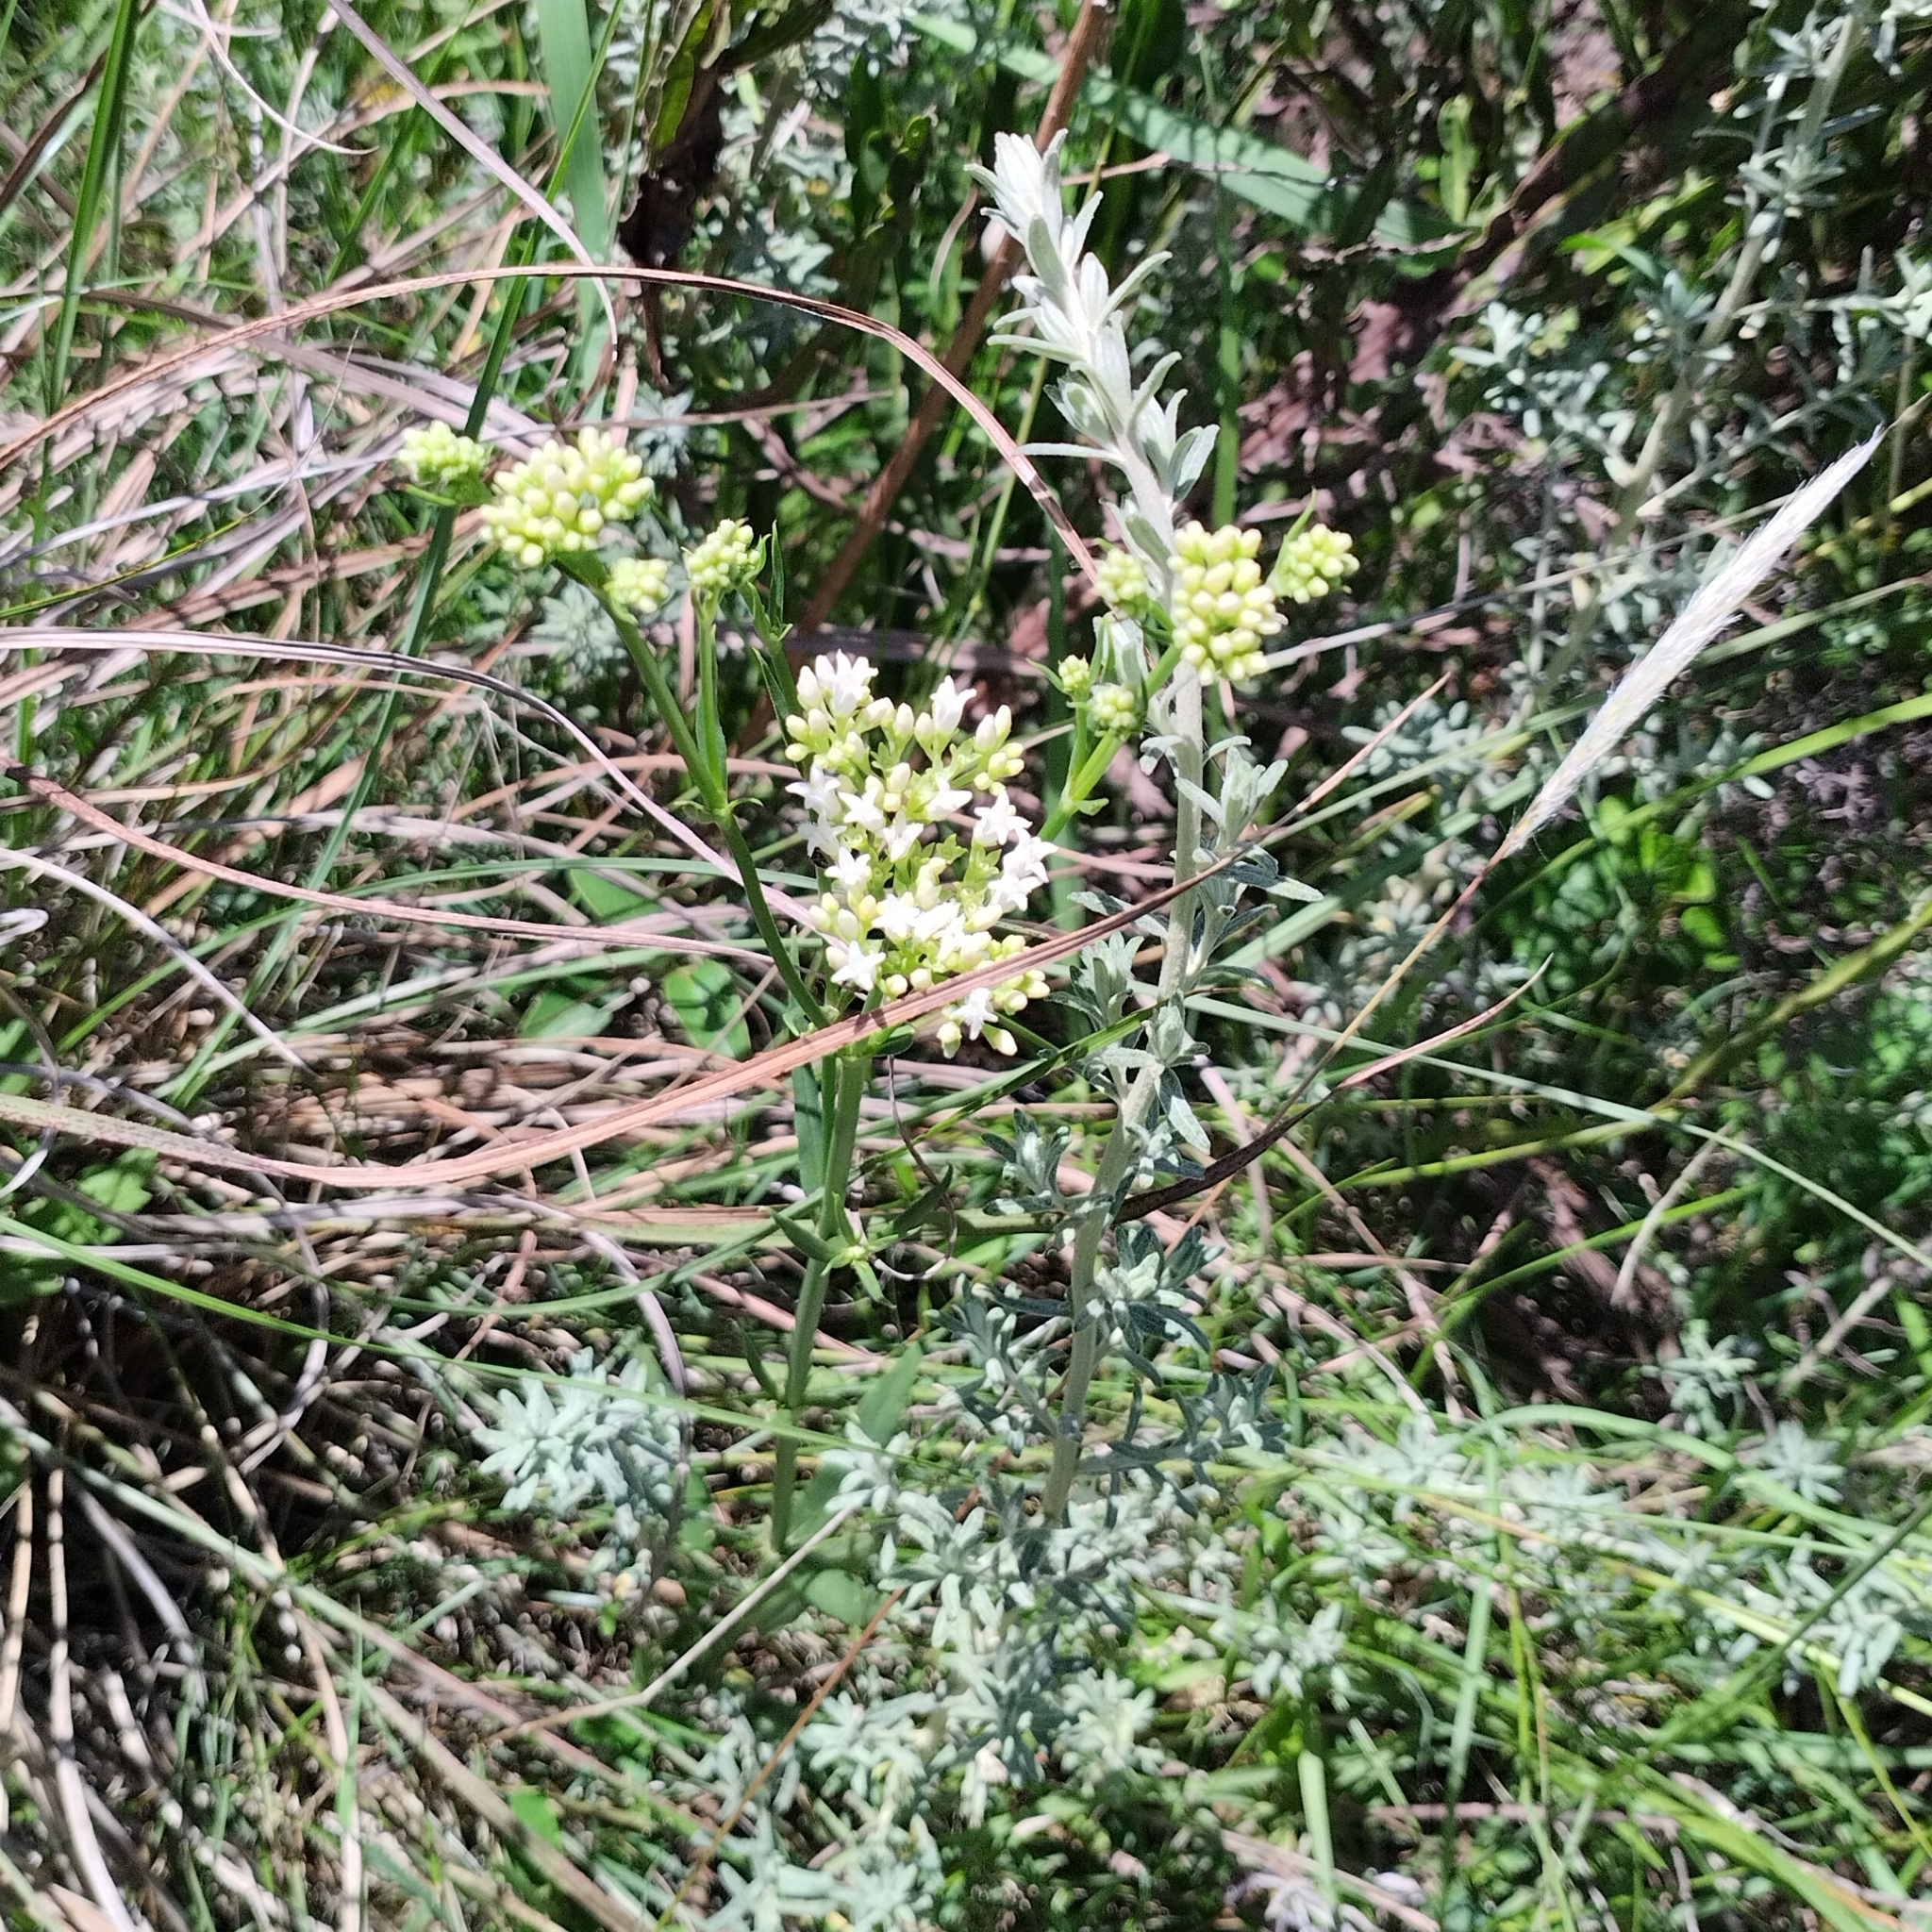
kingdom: Plantae
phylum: Tracheophyta
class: Magnoliopsida
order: Gentianales
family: Rubiaceae
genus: Galianthe
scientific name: Galianthe fastigiata
